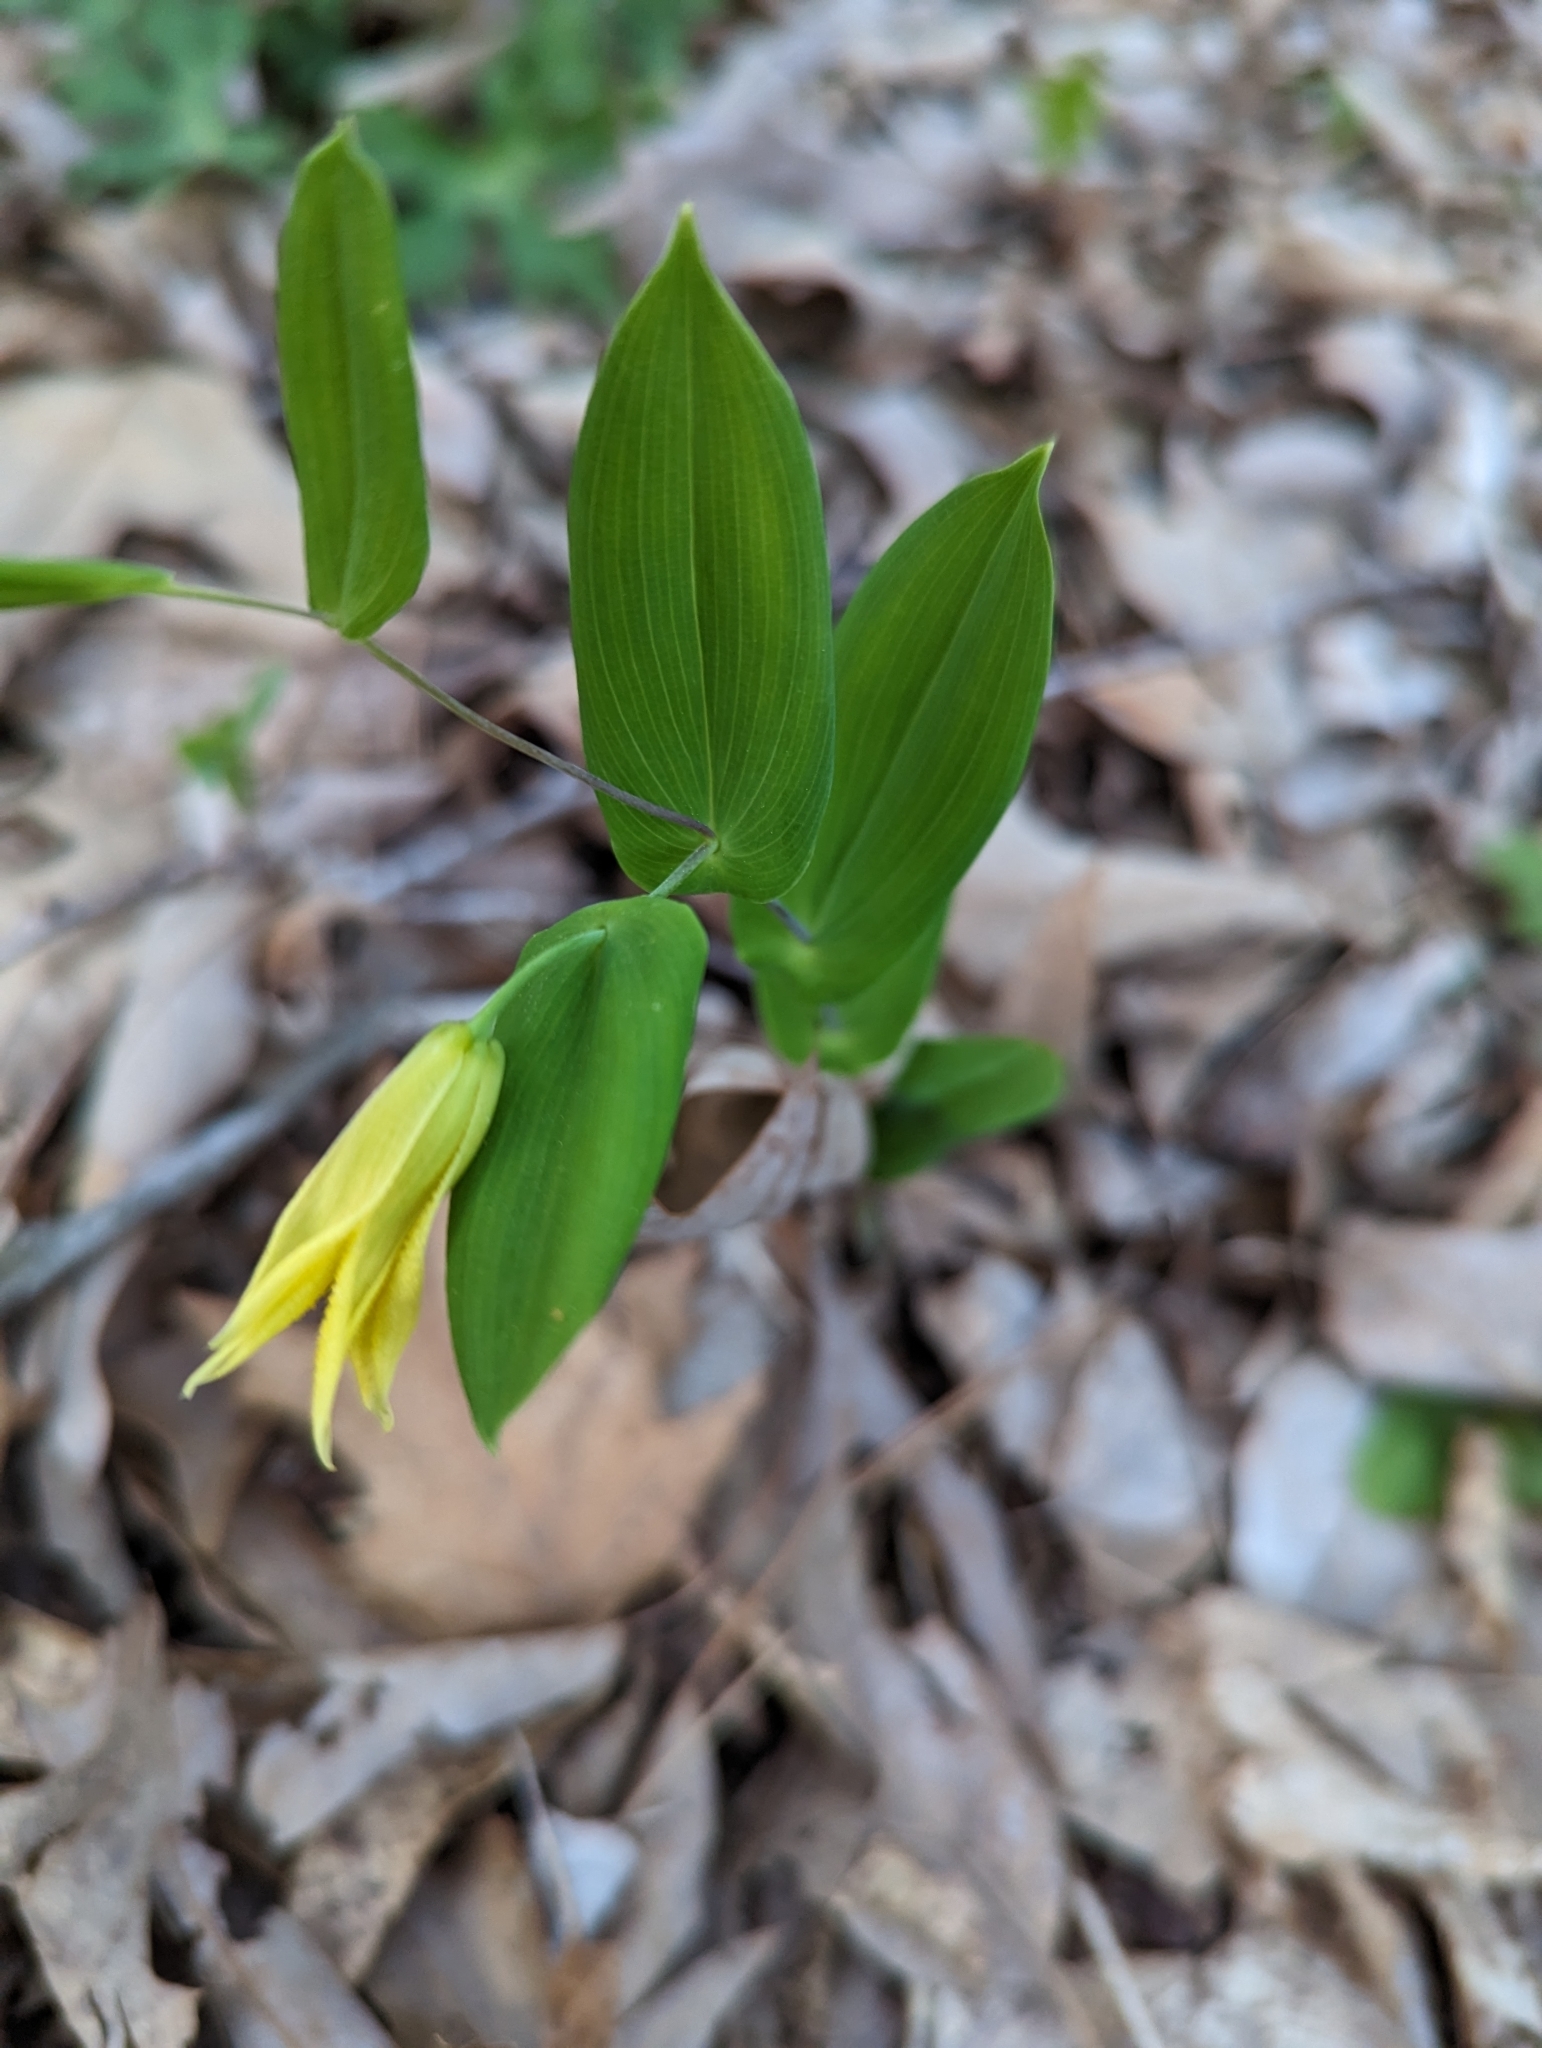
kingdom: Plantae
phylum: Tracheophyta
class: Liliopsida
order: Liliales
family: Colchicaceae
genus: Uvularia
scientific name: Uvularia perfoliata
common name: Perfoliate bellwort
